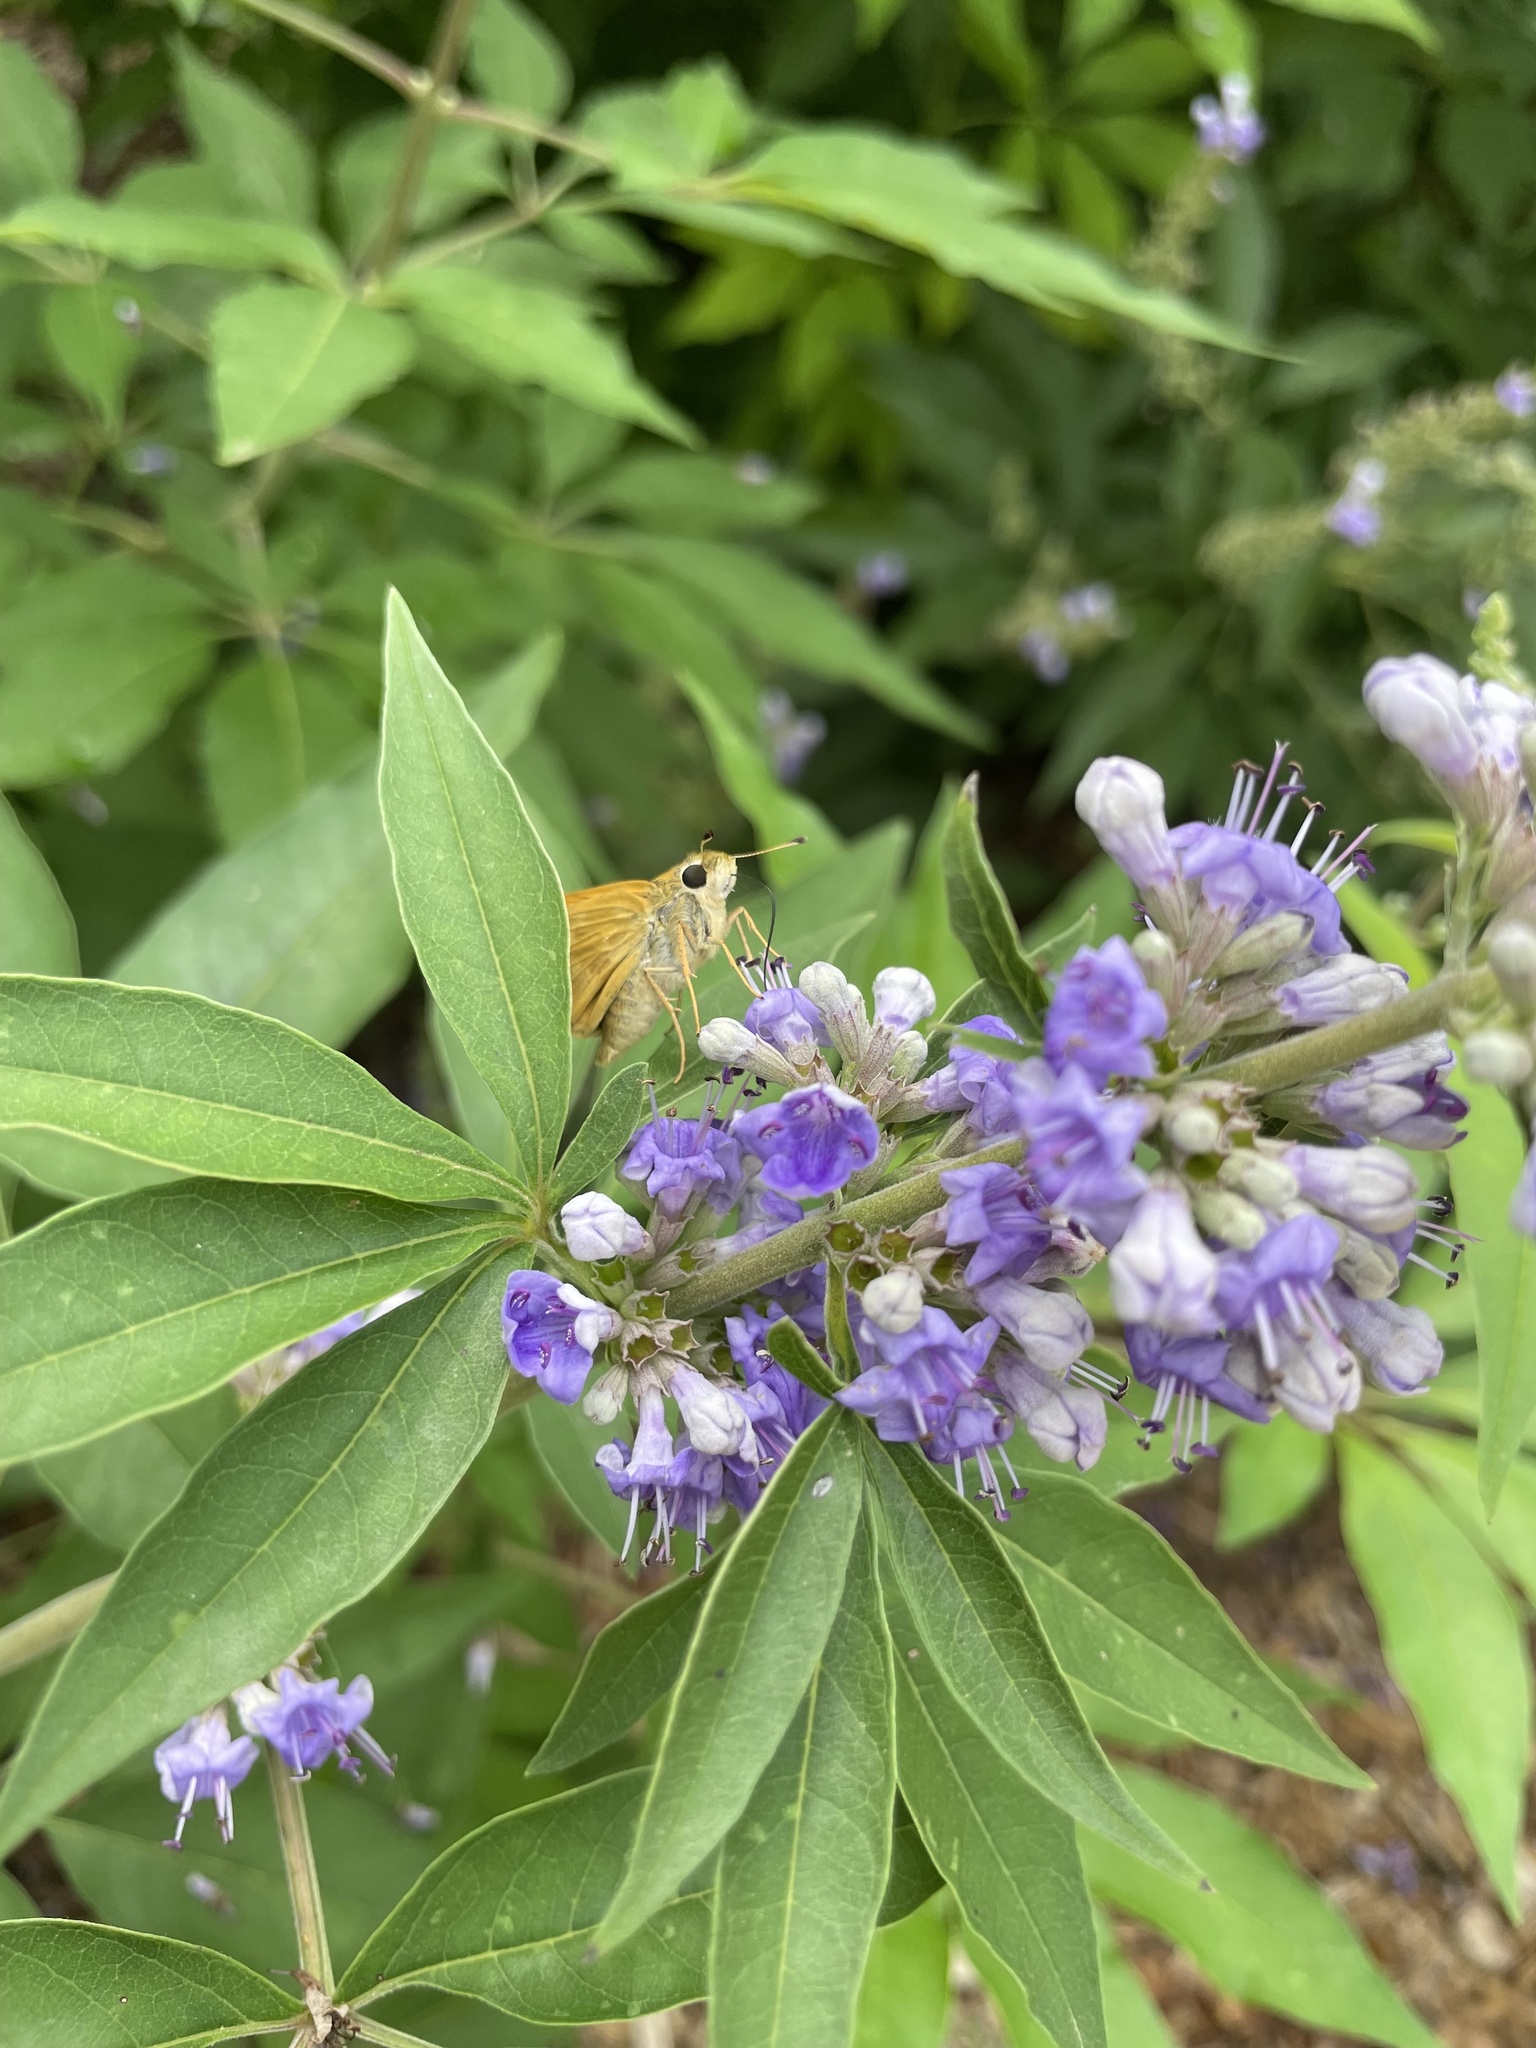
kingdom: Animalia
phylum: Arthropoda
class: Insecta
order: Lepidoptera
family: Hesperiidae
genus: Atalopedes
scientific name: Atalopedes
